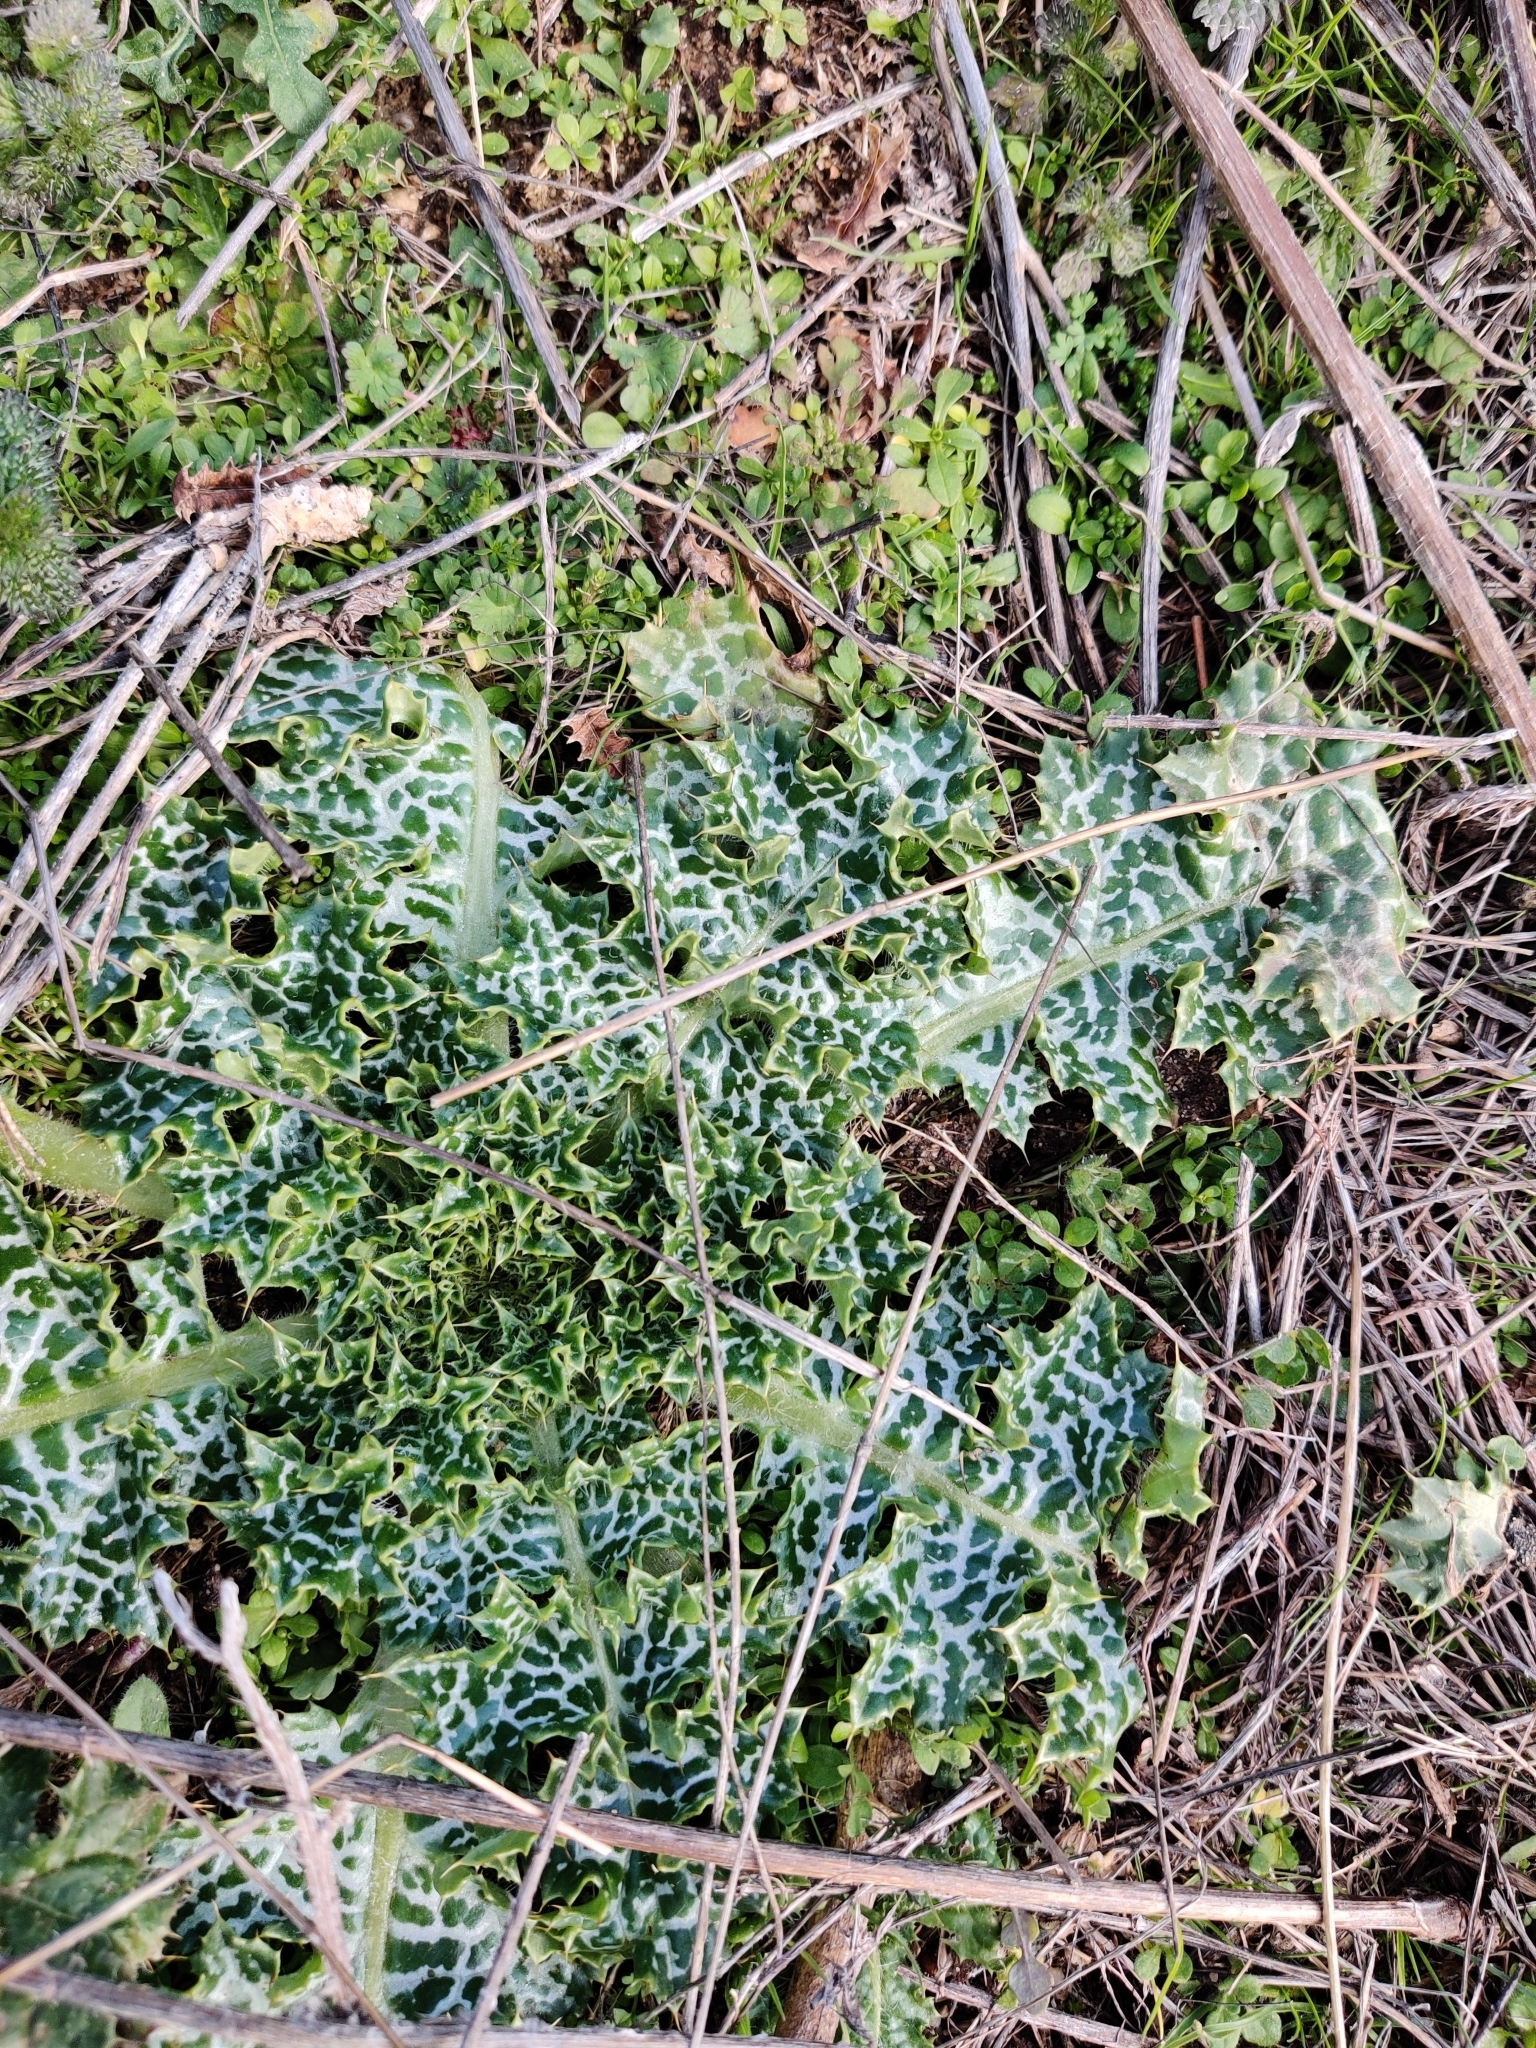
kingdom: Plantae
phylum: Tracheophyta
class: Magnoliopsida
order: Asterales
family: Asteraceae
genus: Silybum
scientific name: Silybum marianum
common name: Milk thistle
